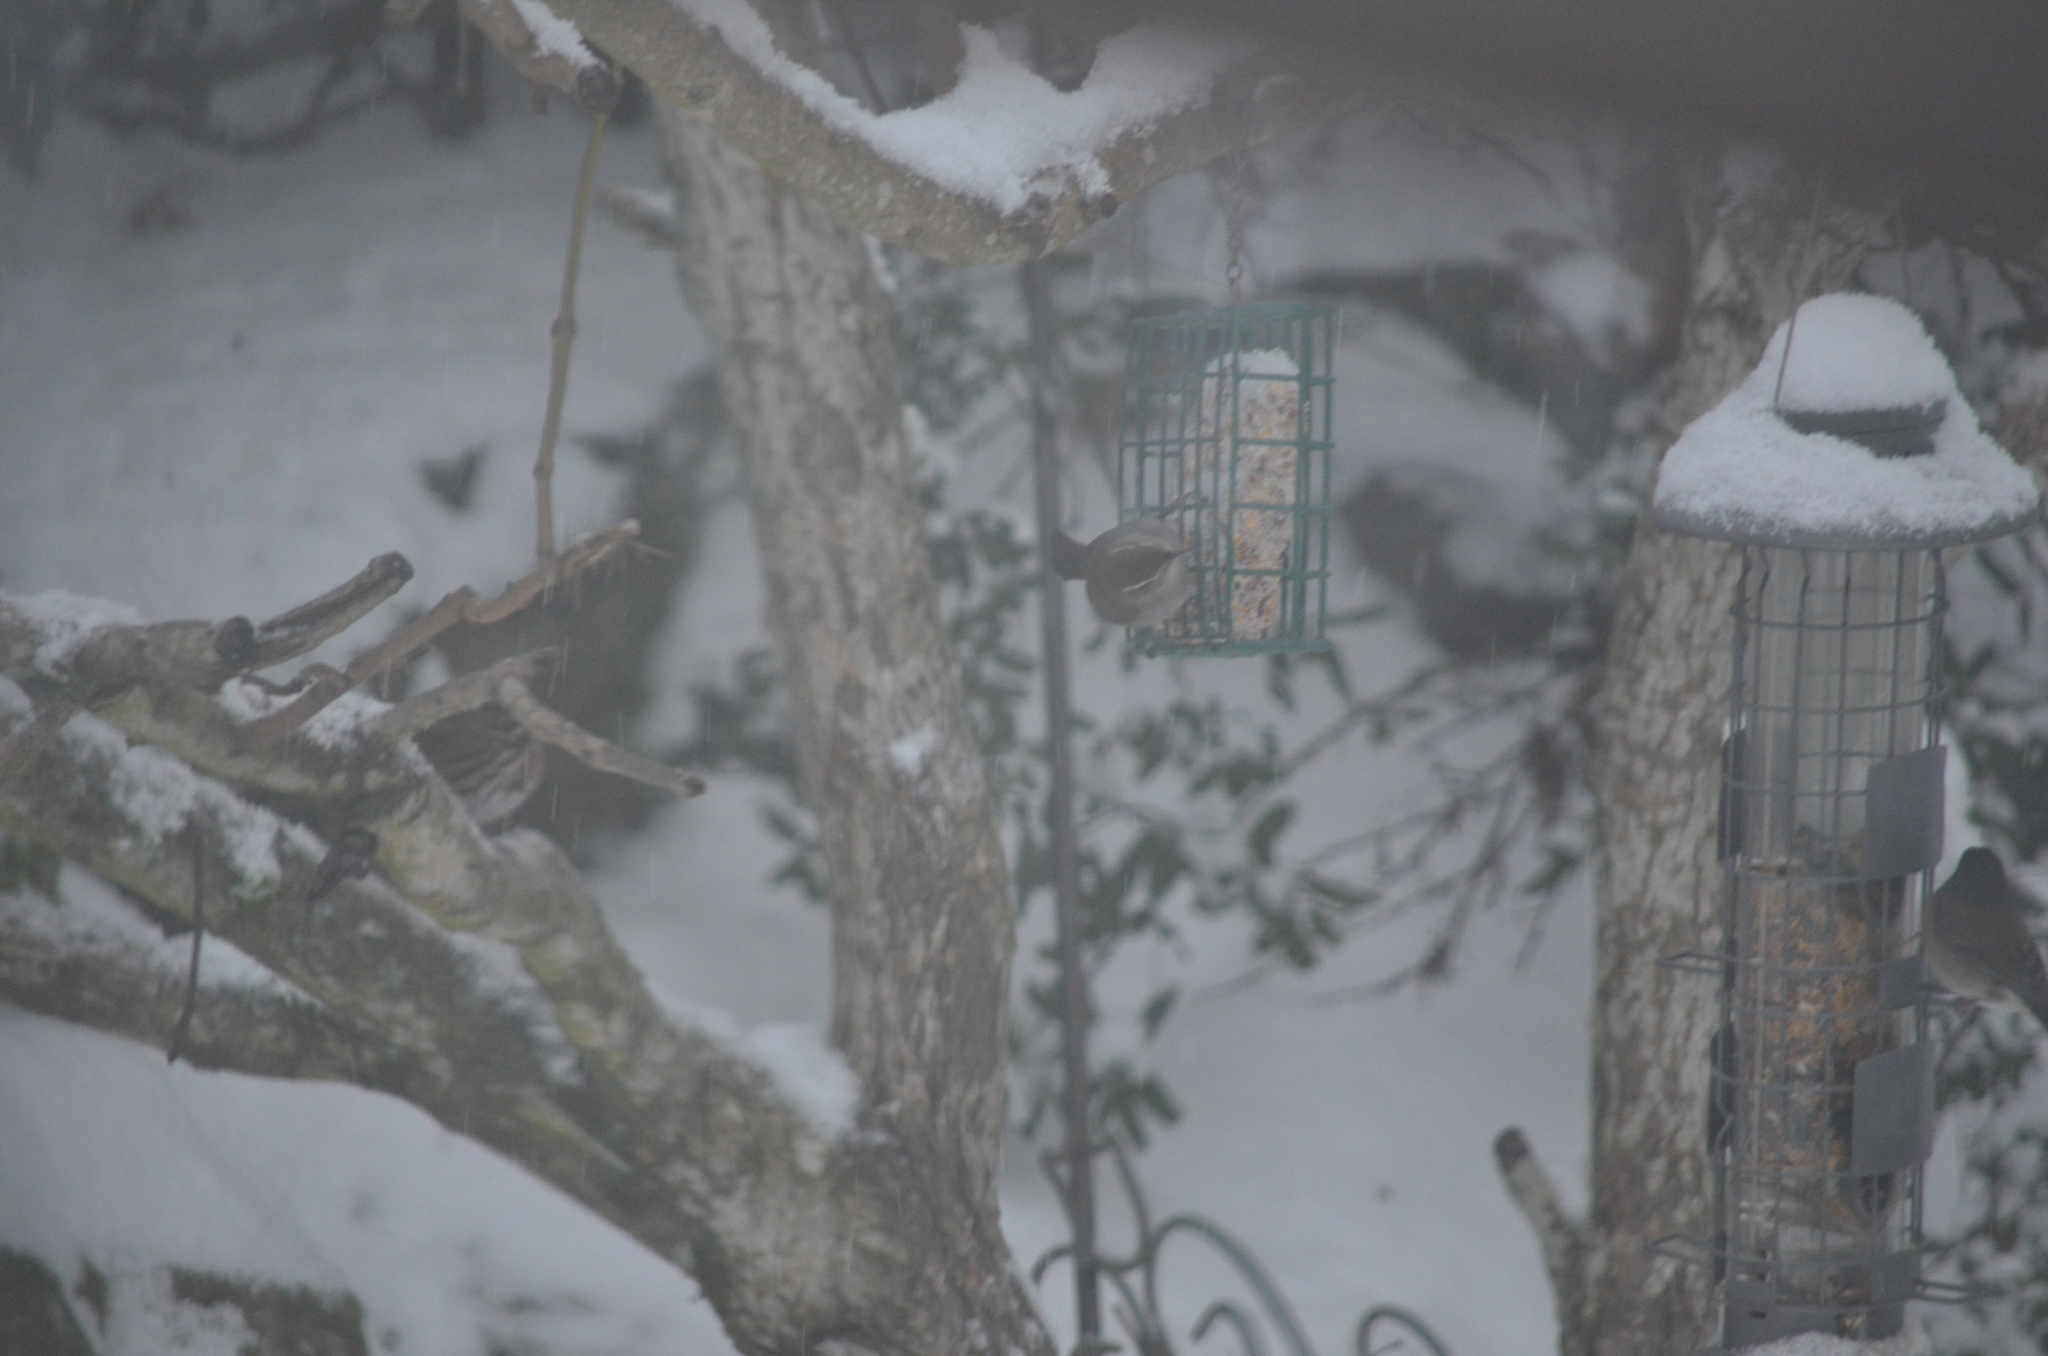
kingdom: Animalia
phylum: Chordata
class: Aves
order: Passeriformes
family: Troglodytidae
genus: Thryomanes
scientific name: Thryomanes bewickii
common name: Bewick's wren
